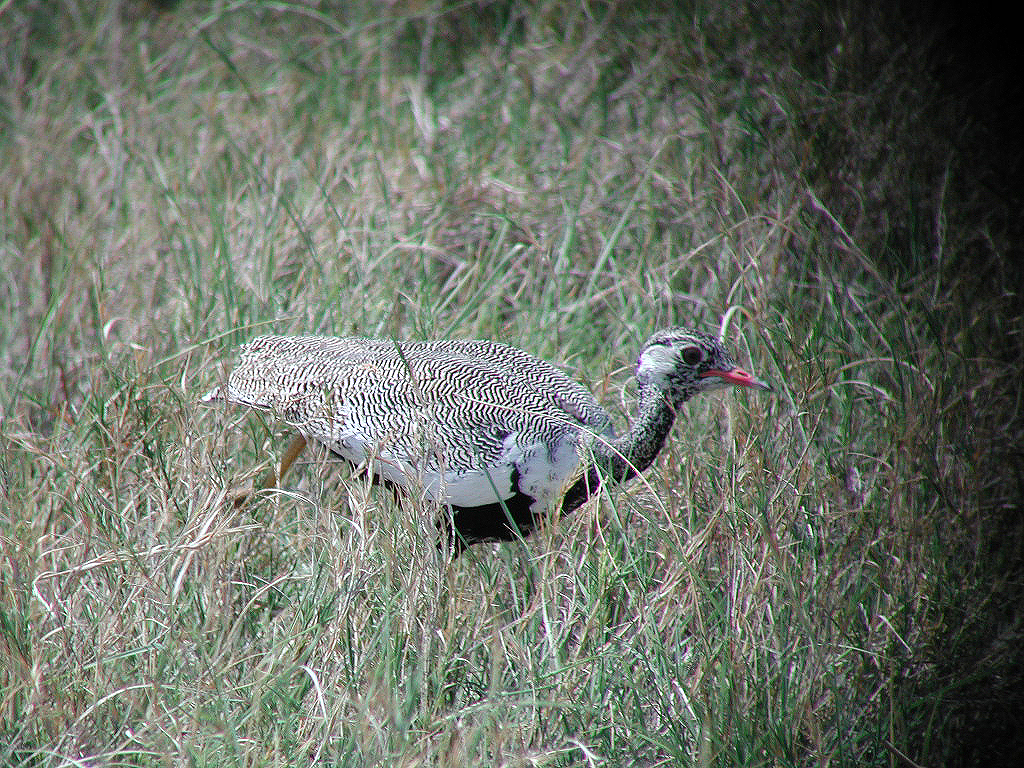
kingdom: Animalia
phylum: Chordata
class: Aves
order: Otidiformes
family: Otididae
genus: Afrotis
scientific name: Afrotis afraoides
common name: Northern black korhaan
